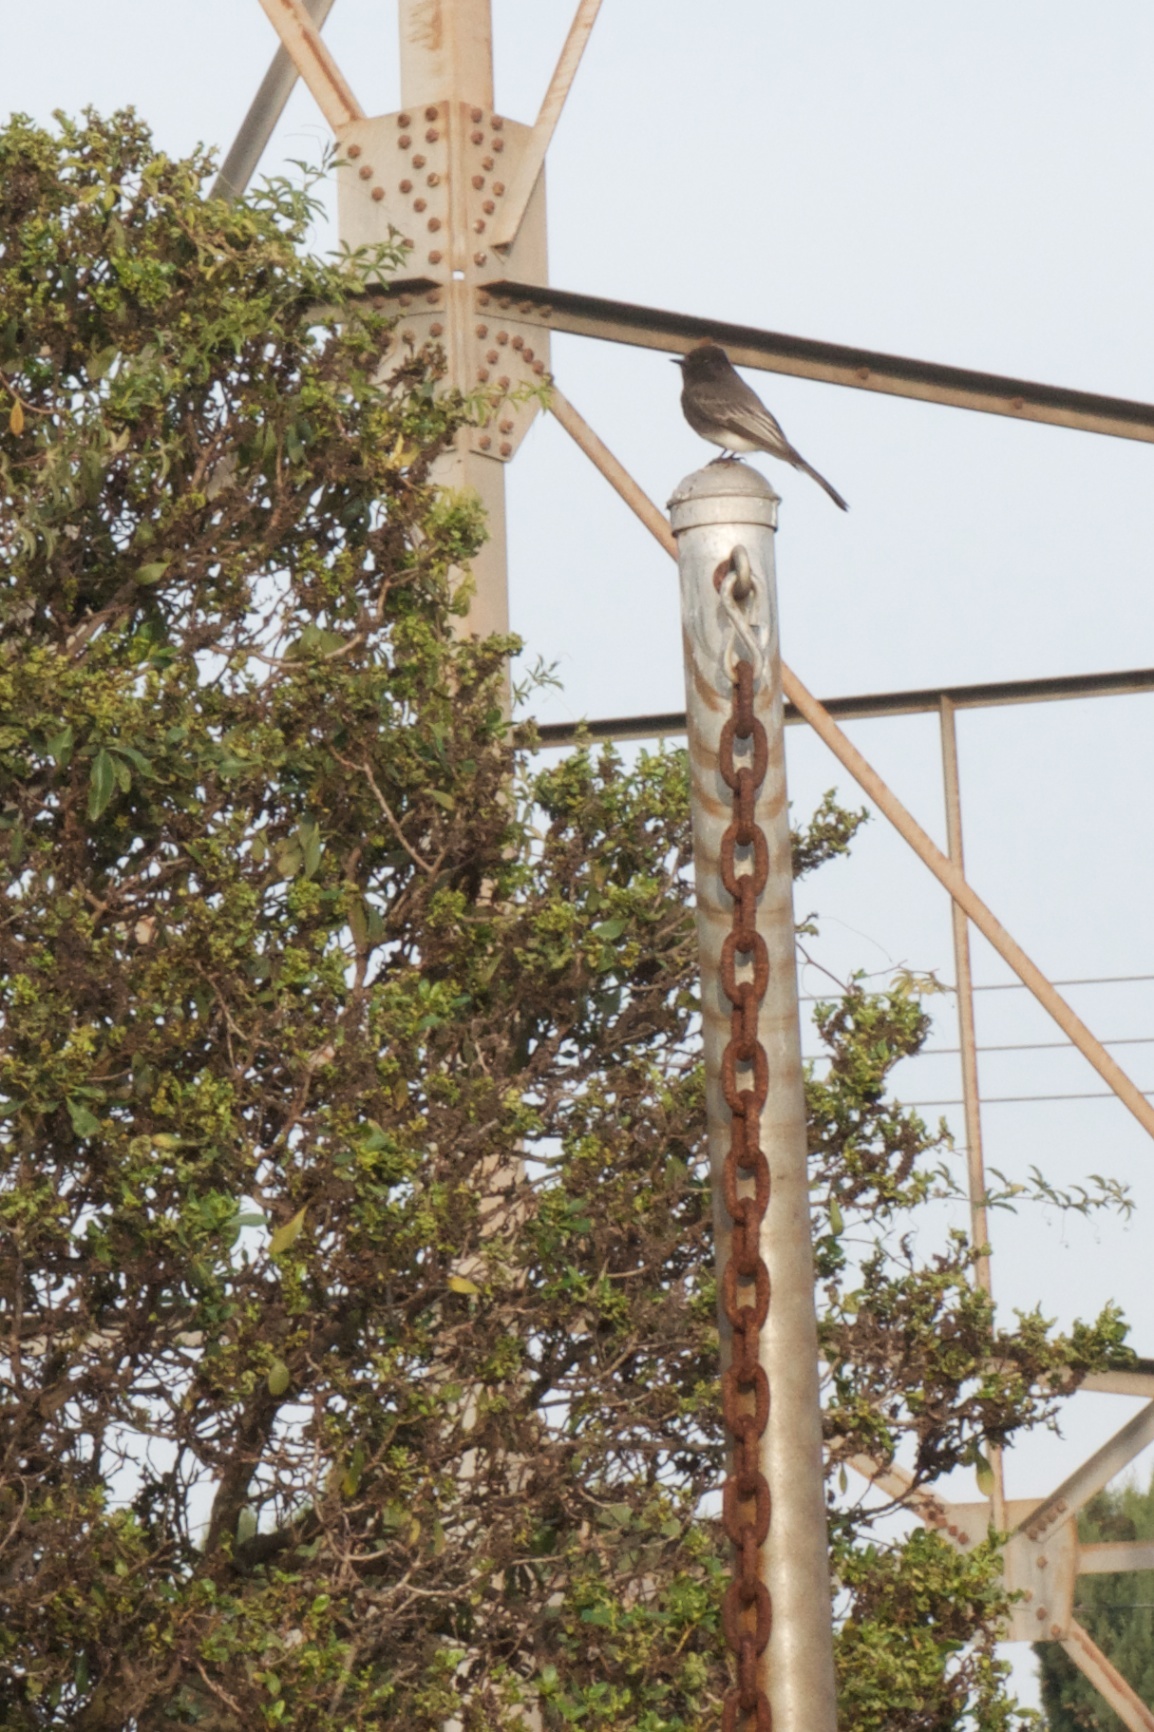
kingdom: Animalia
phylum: Chordata
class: Aves
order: Passeriformes
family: Tyrannidae
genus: Sayornis
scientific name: Sayornis nigricans
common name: Black phoebe
